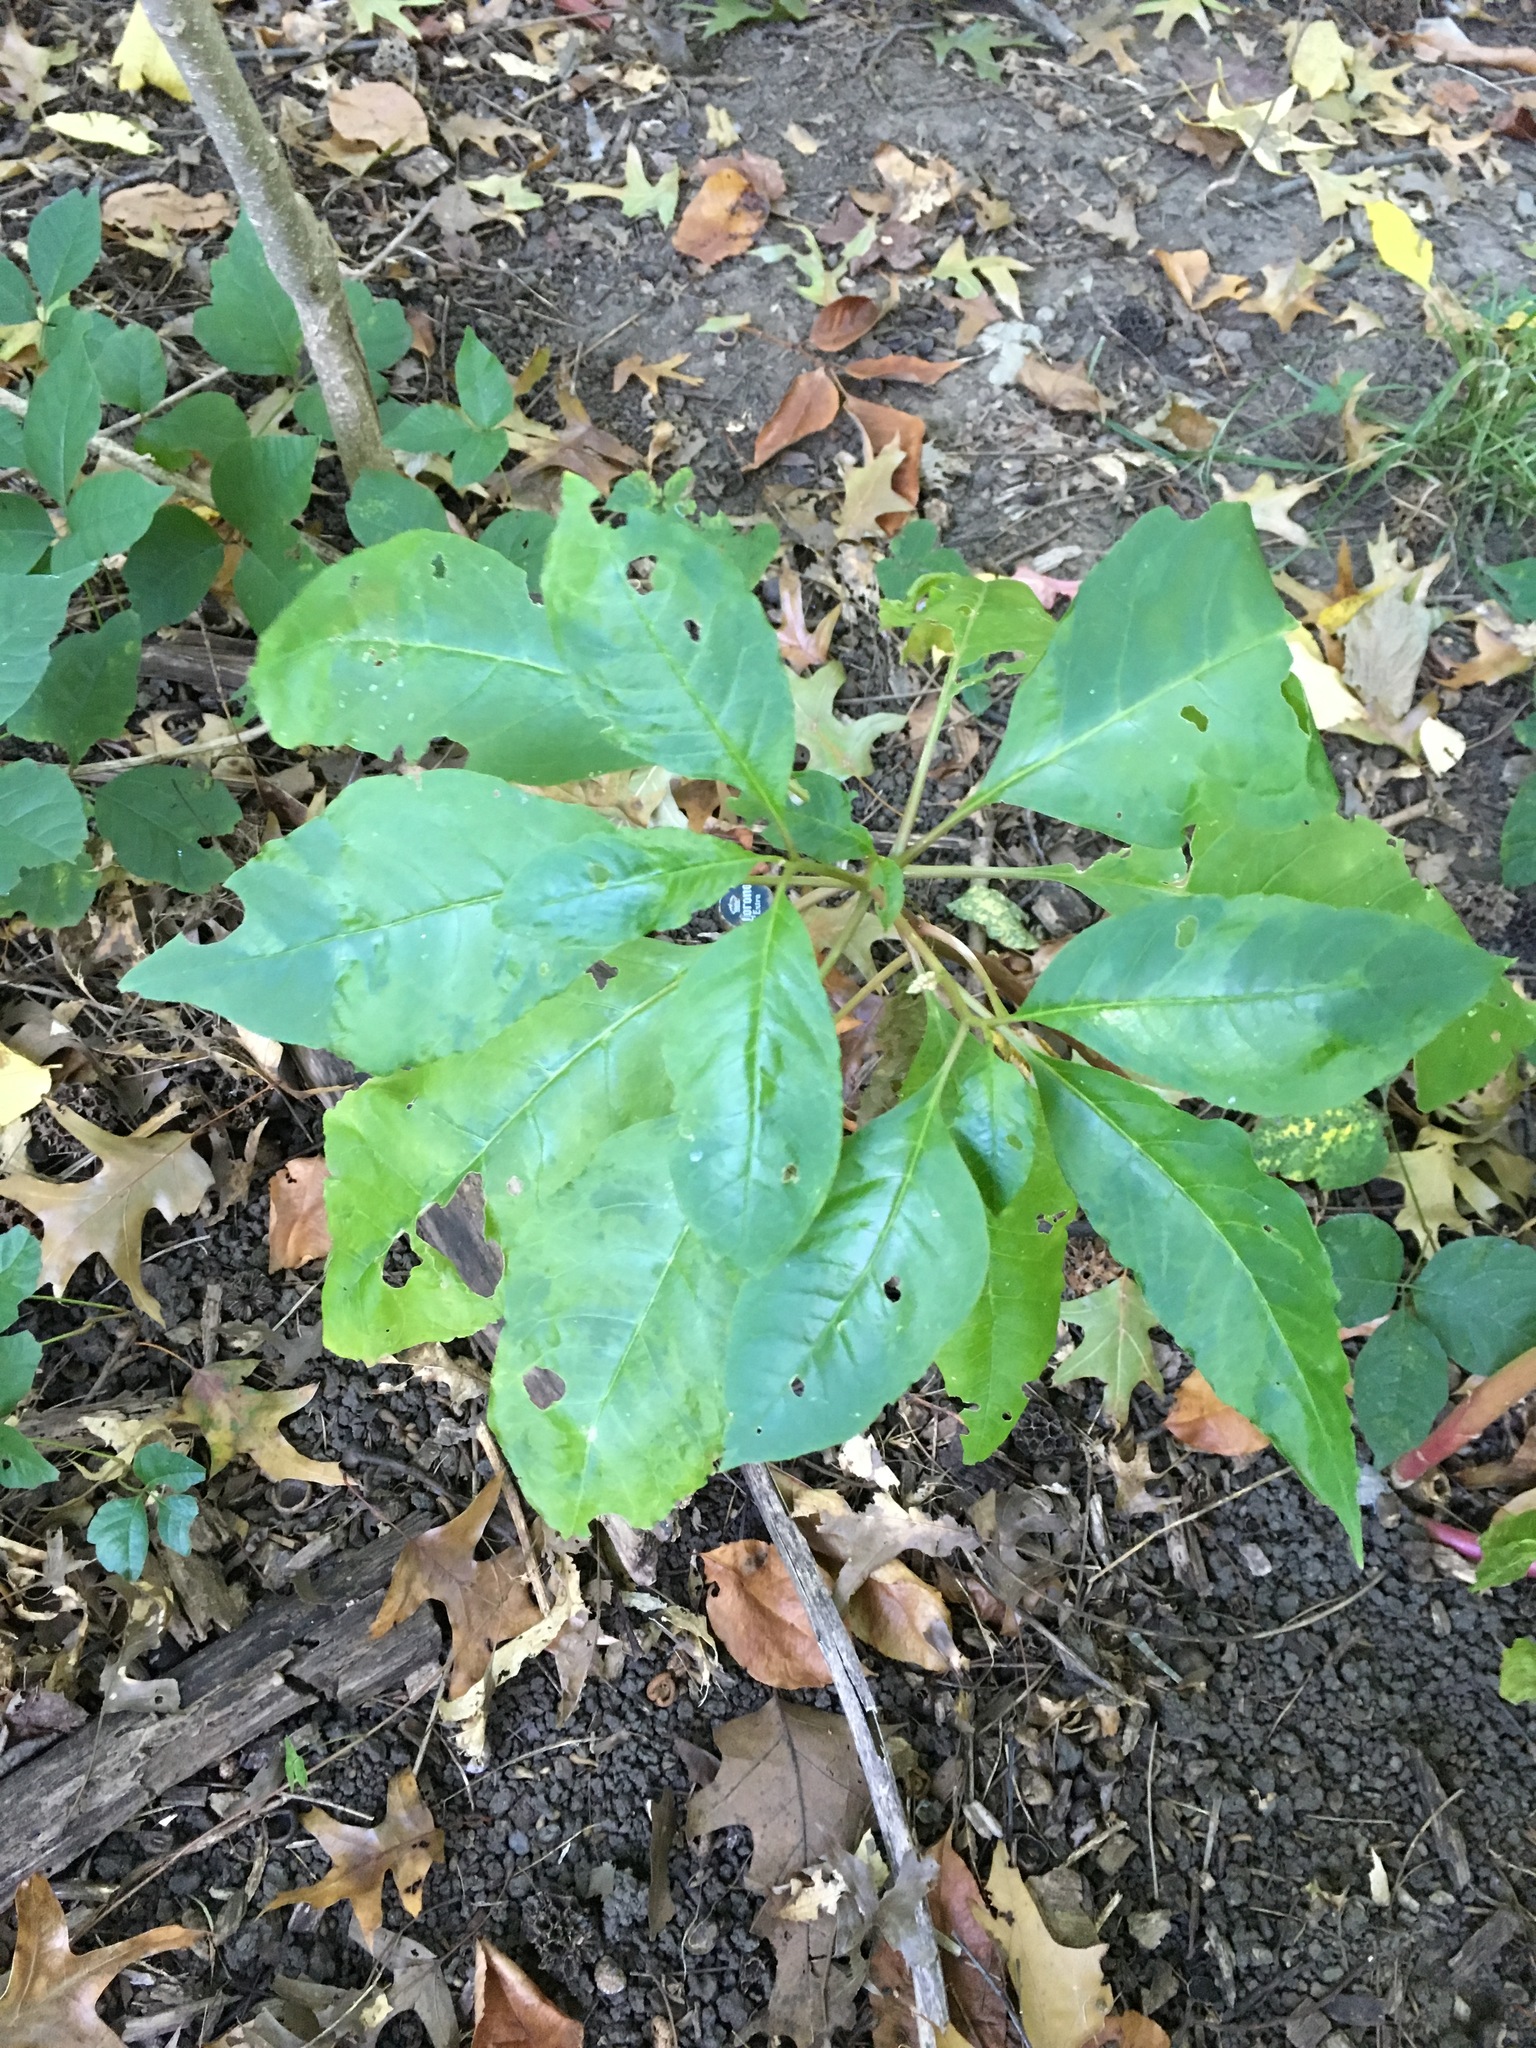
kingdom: Plantae
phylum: Tracheophyta
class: Magnoliopsida
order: Caryophyllales
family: Phytolaccaceae
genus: Phytolacca
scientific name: Phytolacca americana
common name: American pokeweed
